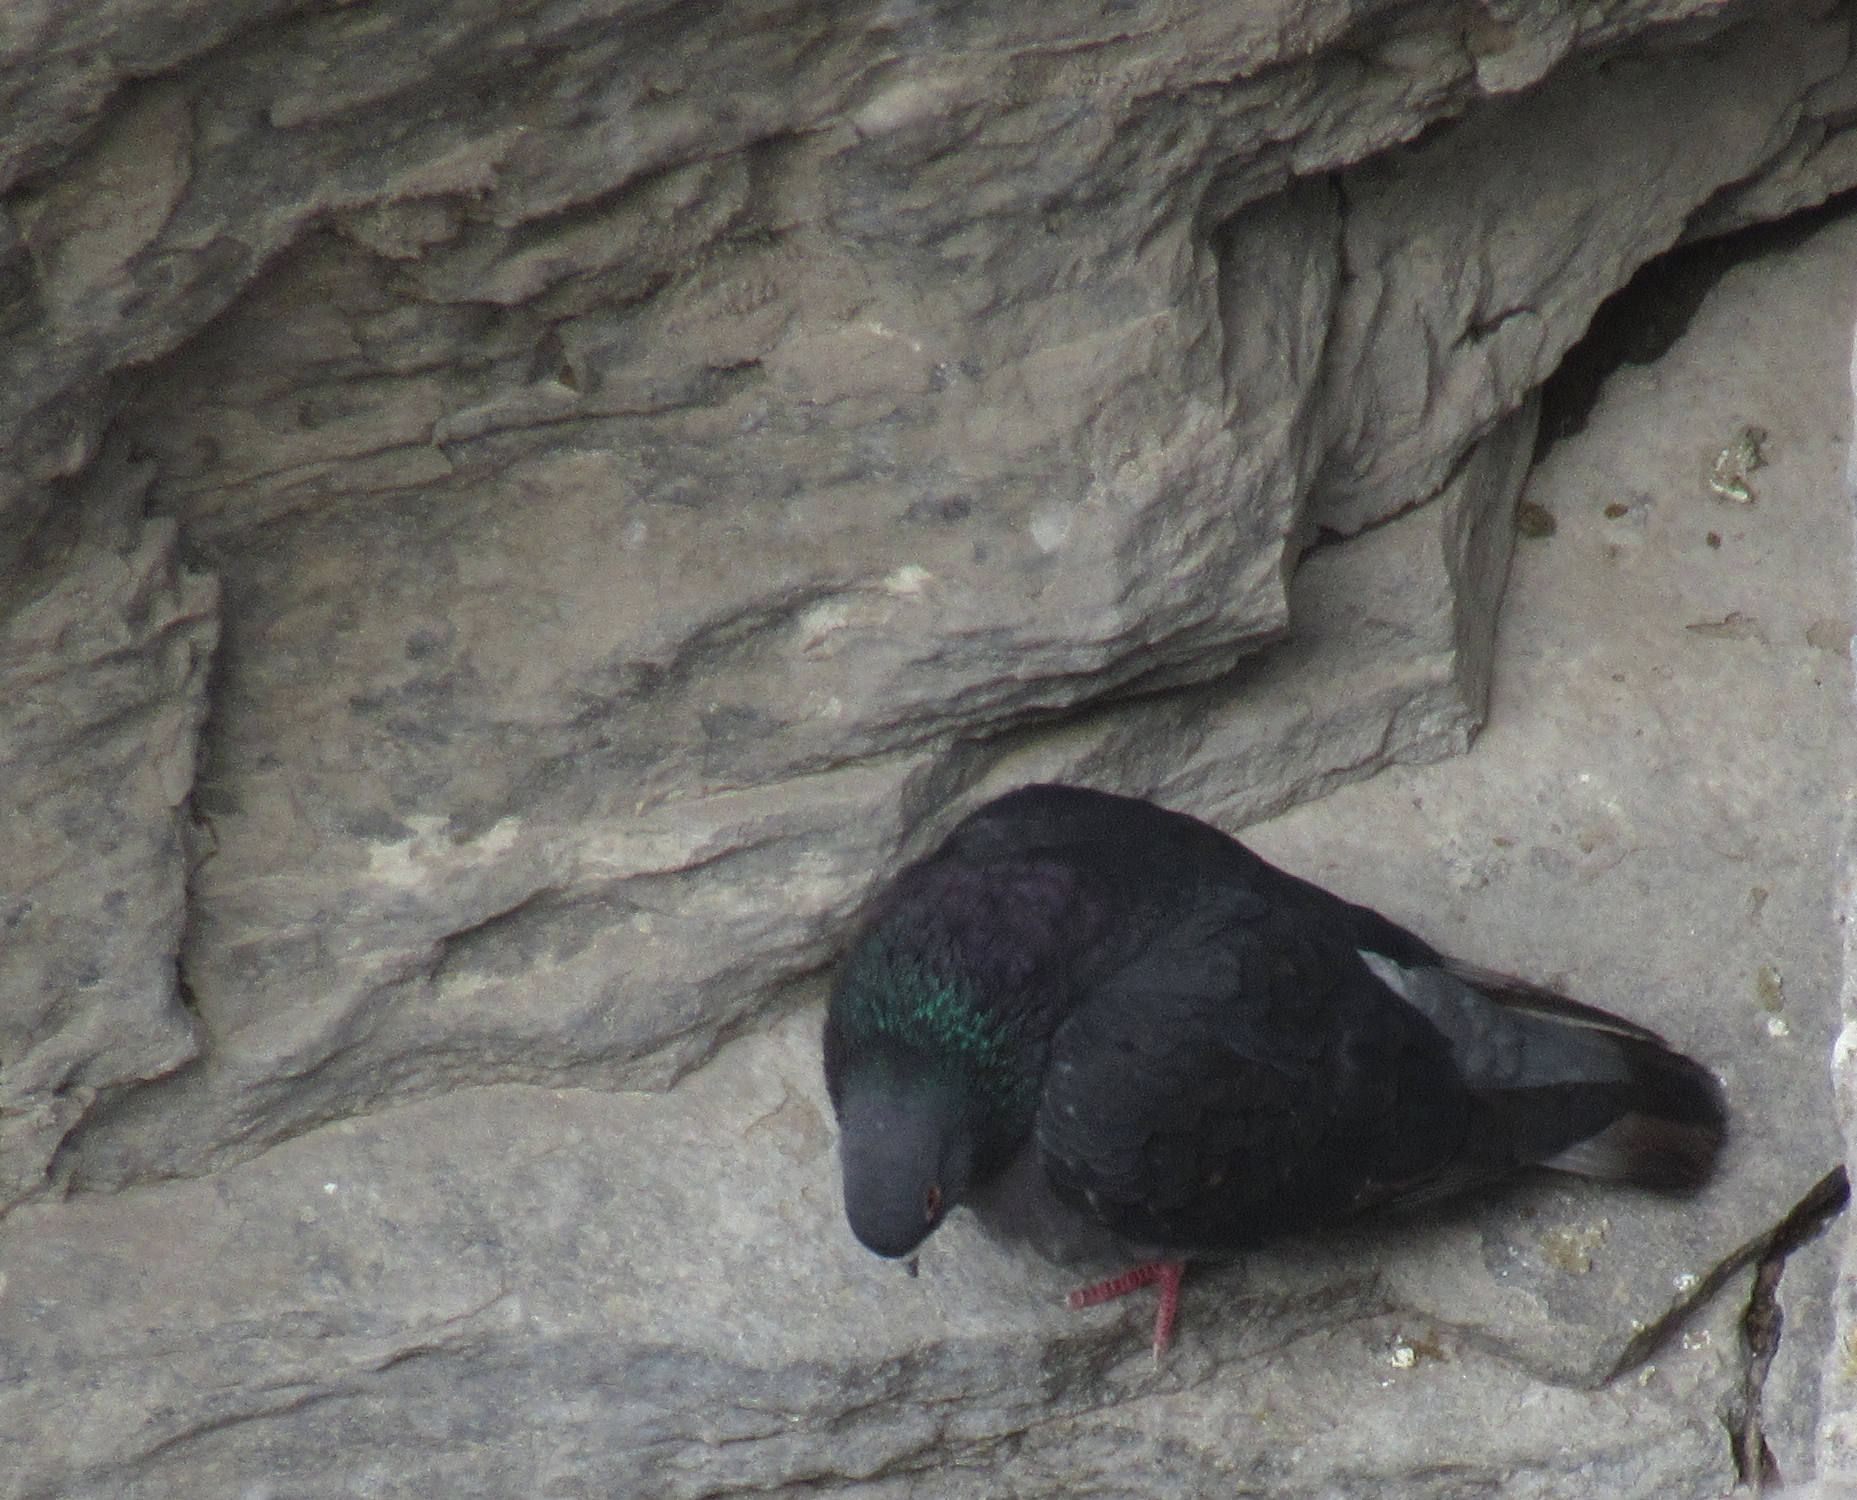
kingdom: Animalia
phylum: Chordata
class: Aves
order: Columbiformes
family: Columbidae
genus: Columba
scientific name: Columba livia
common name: Rock pigeon
